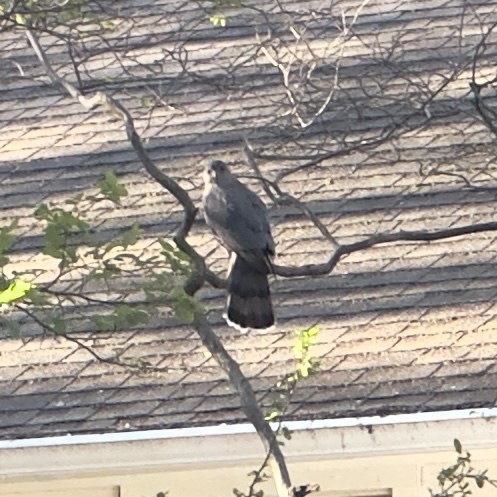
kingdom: Animalia
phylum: Chordata
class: Aves
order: Accipitriformes
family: Accipitridae
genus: Accipiter
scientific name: Accipiter cooperii
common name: Cooper's hawk
